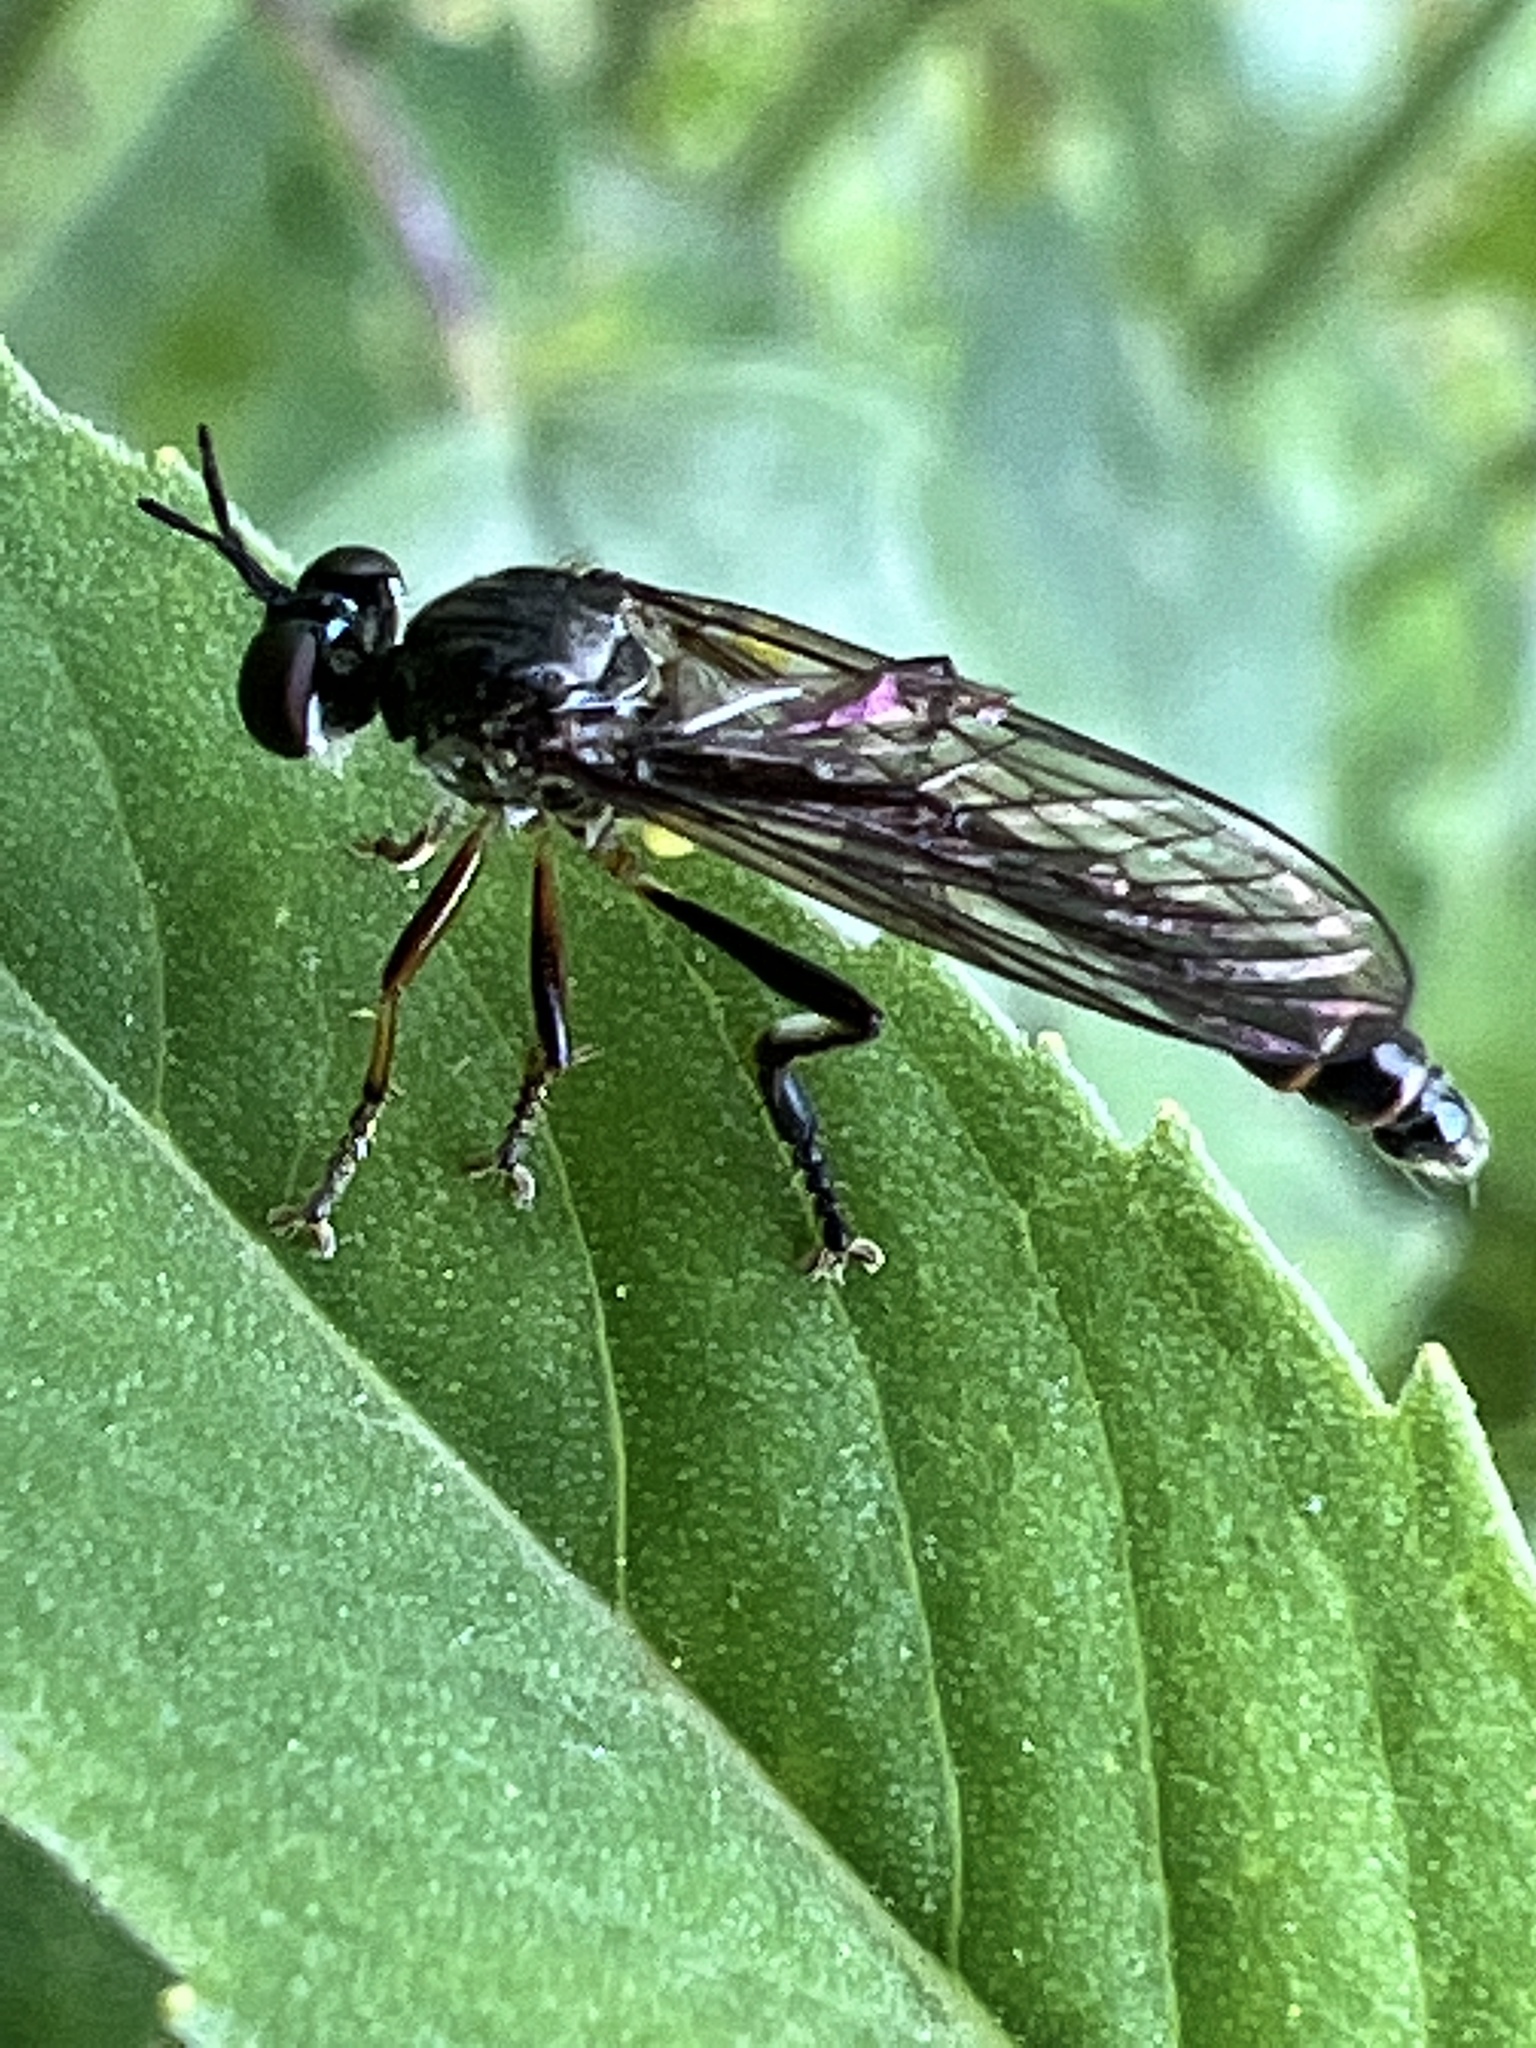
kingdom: Animalia
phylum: Arthropoda
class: Insecta
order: Diptera
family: Asilidae
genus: Dioctria
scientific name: Dioctria hyalipennis
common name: Stripe-legged robberfly
